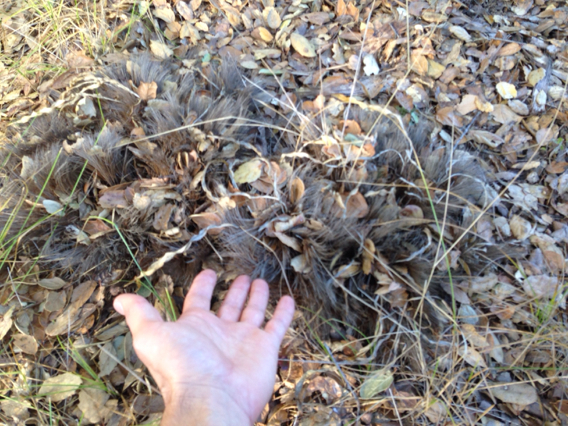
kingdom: Plantae
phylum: Tracheophyta
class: Liliopsida
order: Asparagales
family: Asparagaceae
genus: Chlorogalum
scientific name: Chlorogalum pomeridianum
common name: Amole
